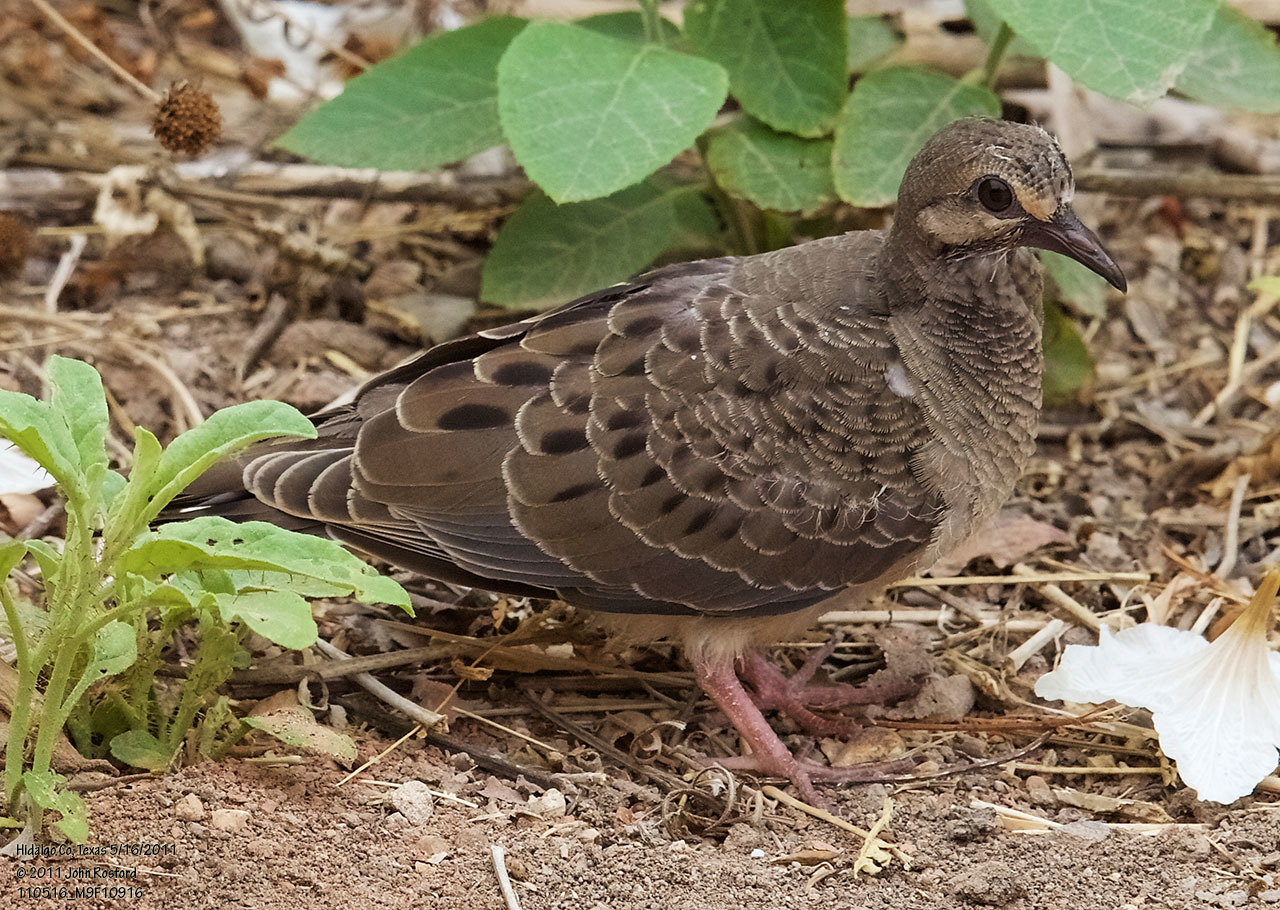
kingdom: Animalia
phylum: Chordata
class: Aves
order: Columbiformes
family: Columbidae
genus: Zenaida
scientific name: Zenaida macroura
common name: Mourning dove
